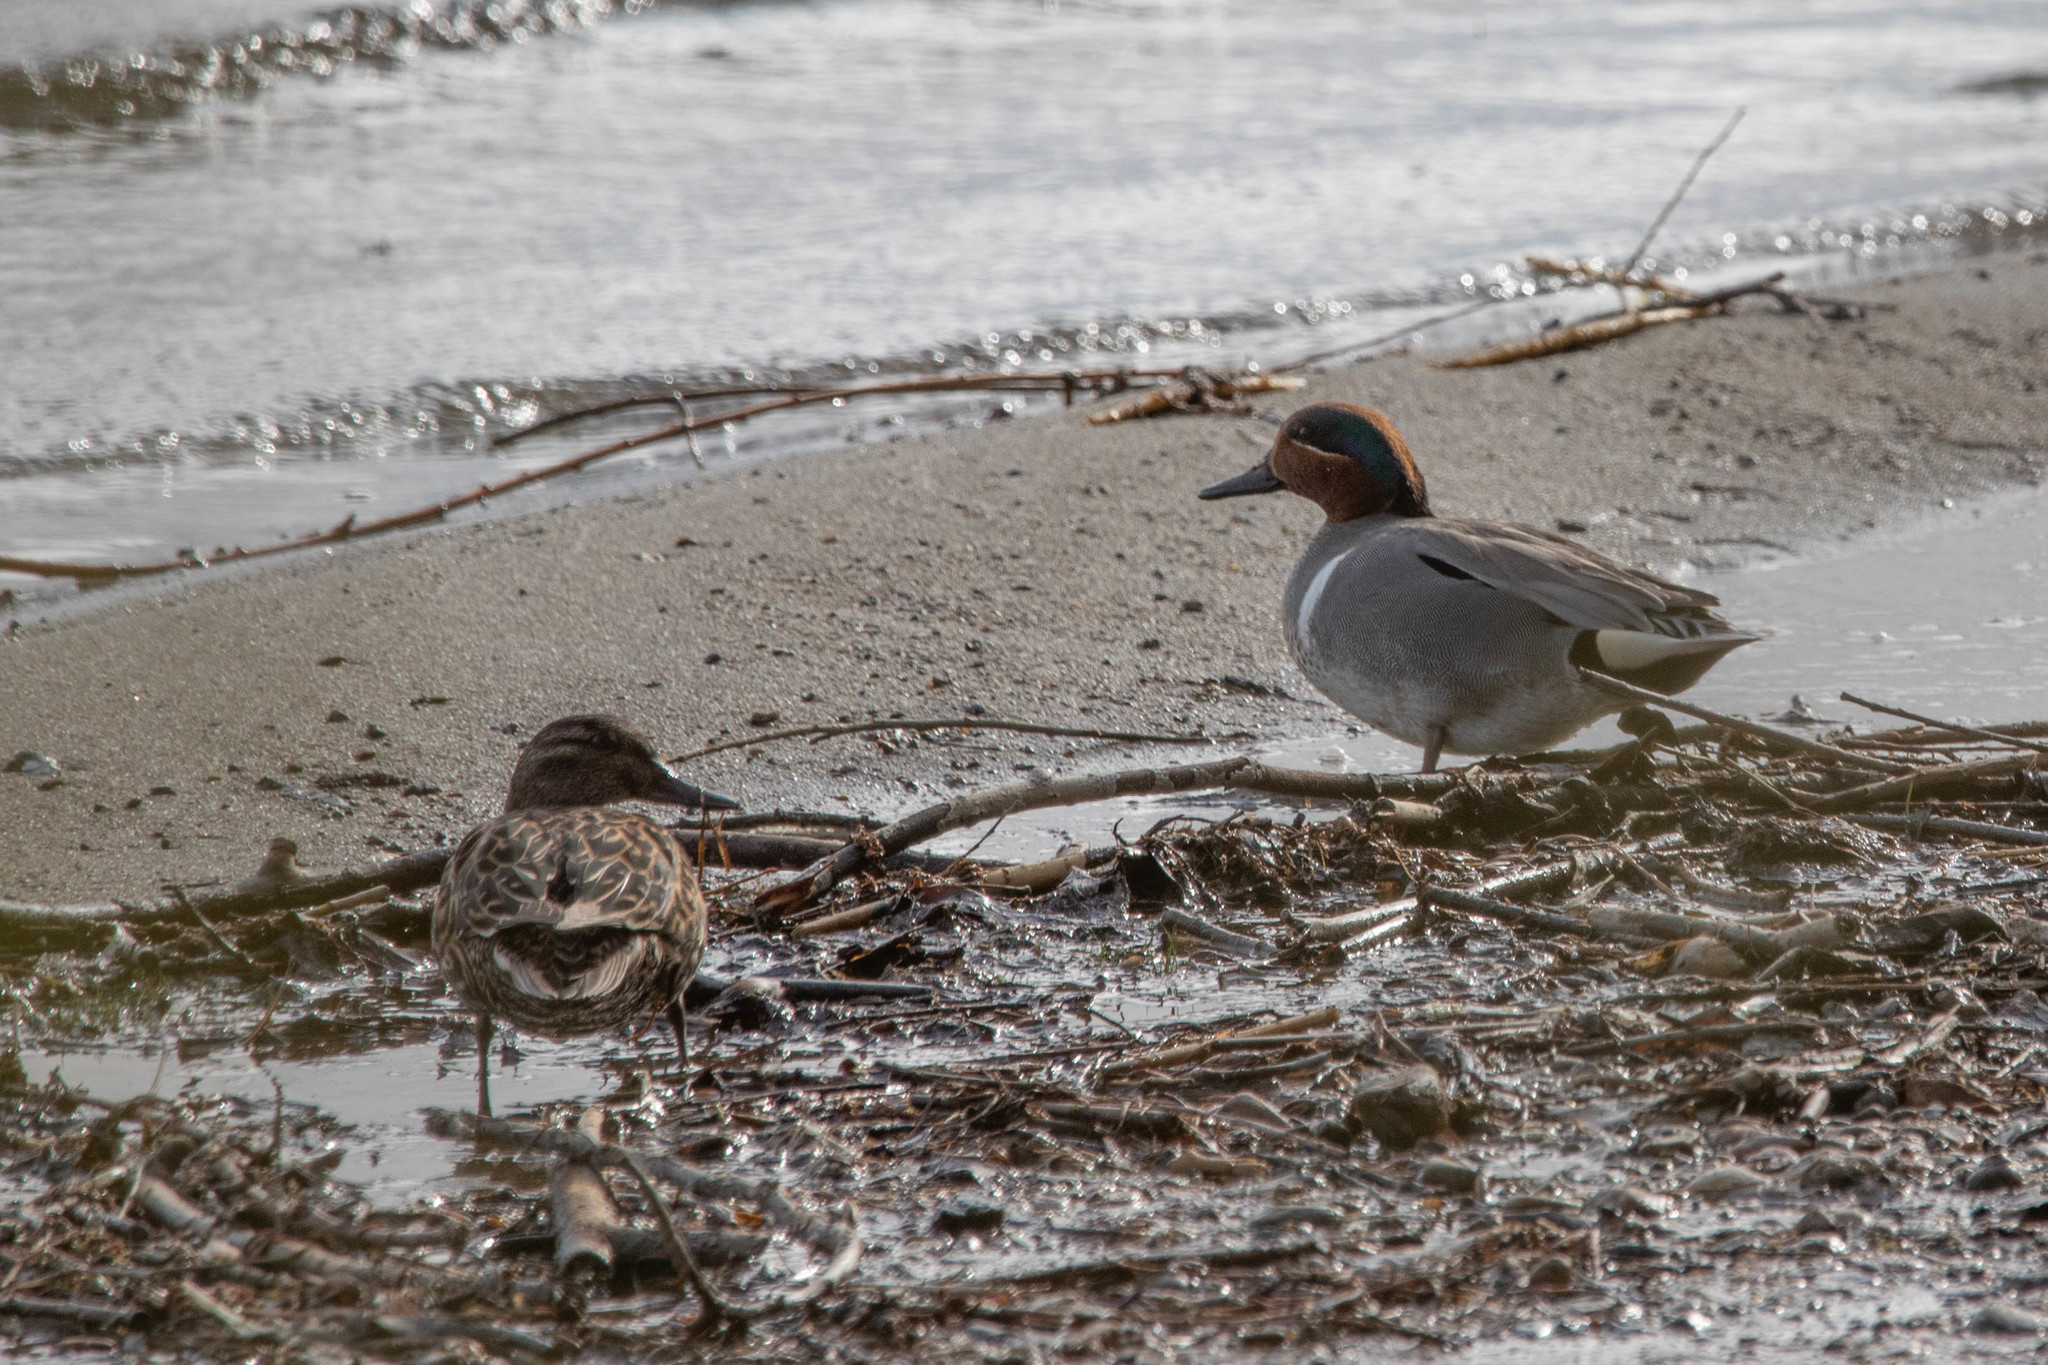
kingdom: Animalia
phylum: Chordata
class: Aves
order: Anseriformes
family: Anatidae
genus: Anas
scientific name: Anas carolinensis
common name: Green-winged teal
